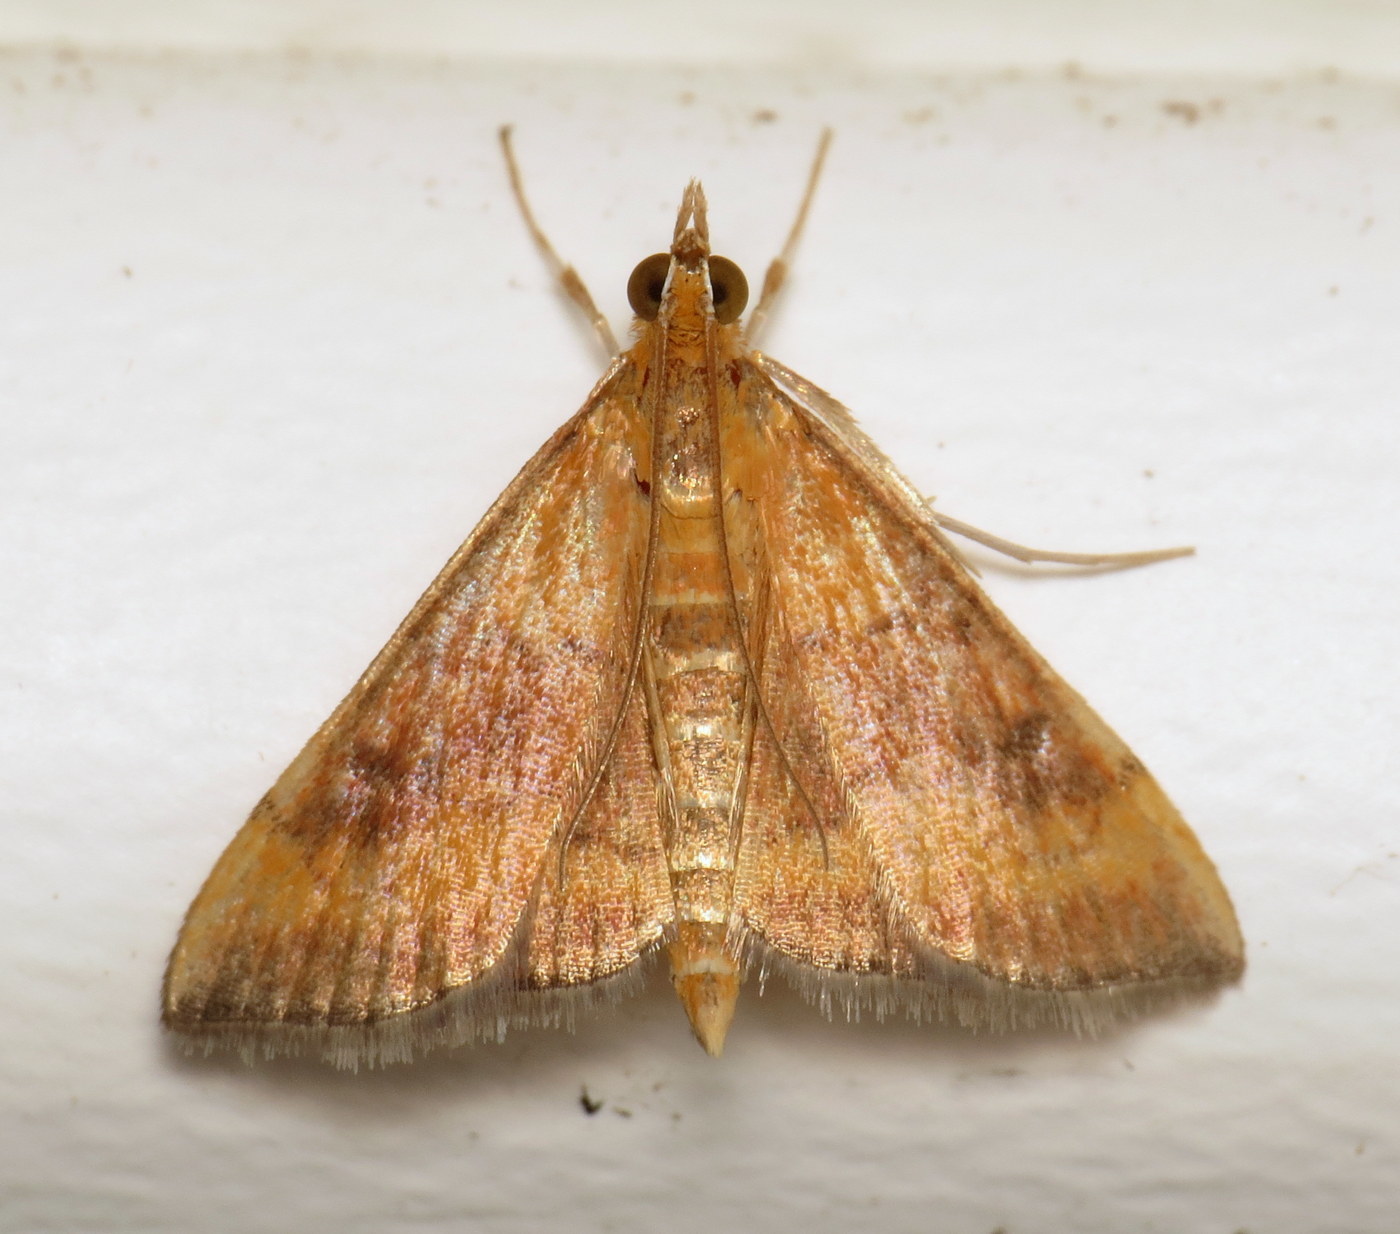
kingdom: Animalia
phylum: Arthropoda
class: Insecta
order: Lepidoptera
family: Crambidae
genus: Pyrausta
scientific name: Pyrausta rubricalis
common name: Variable reddish pyrausta
